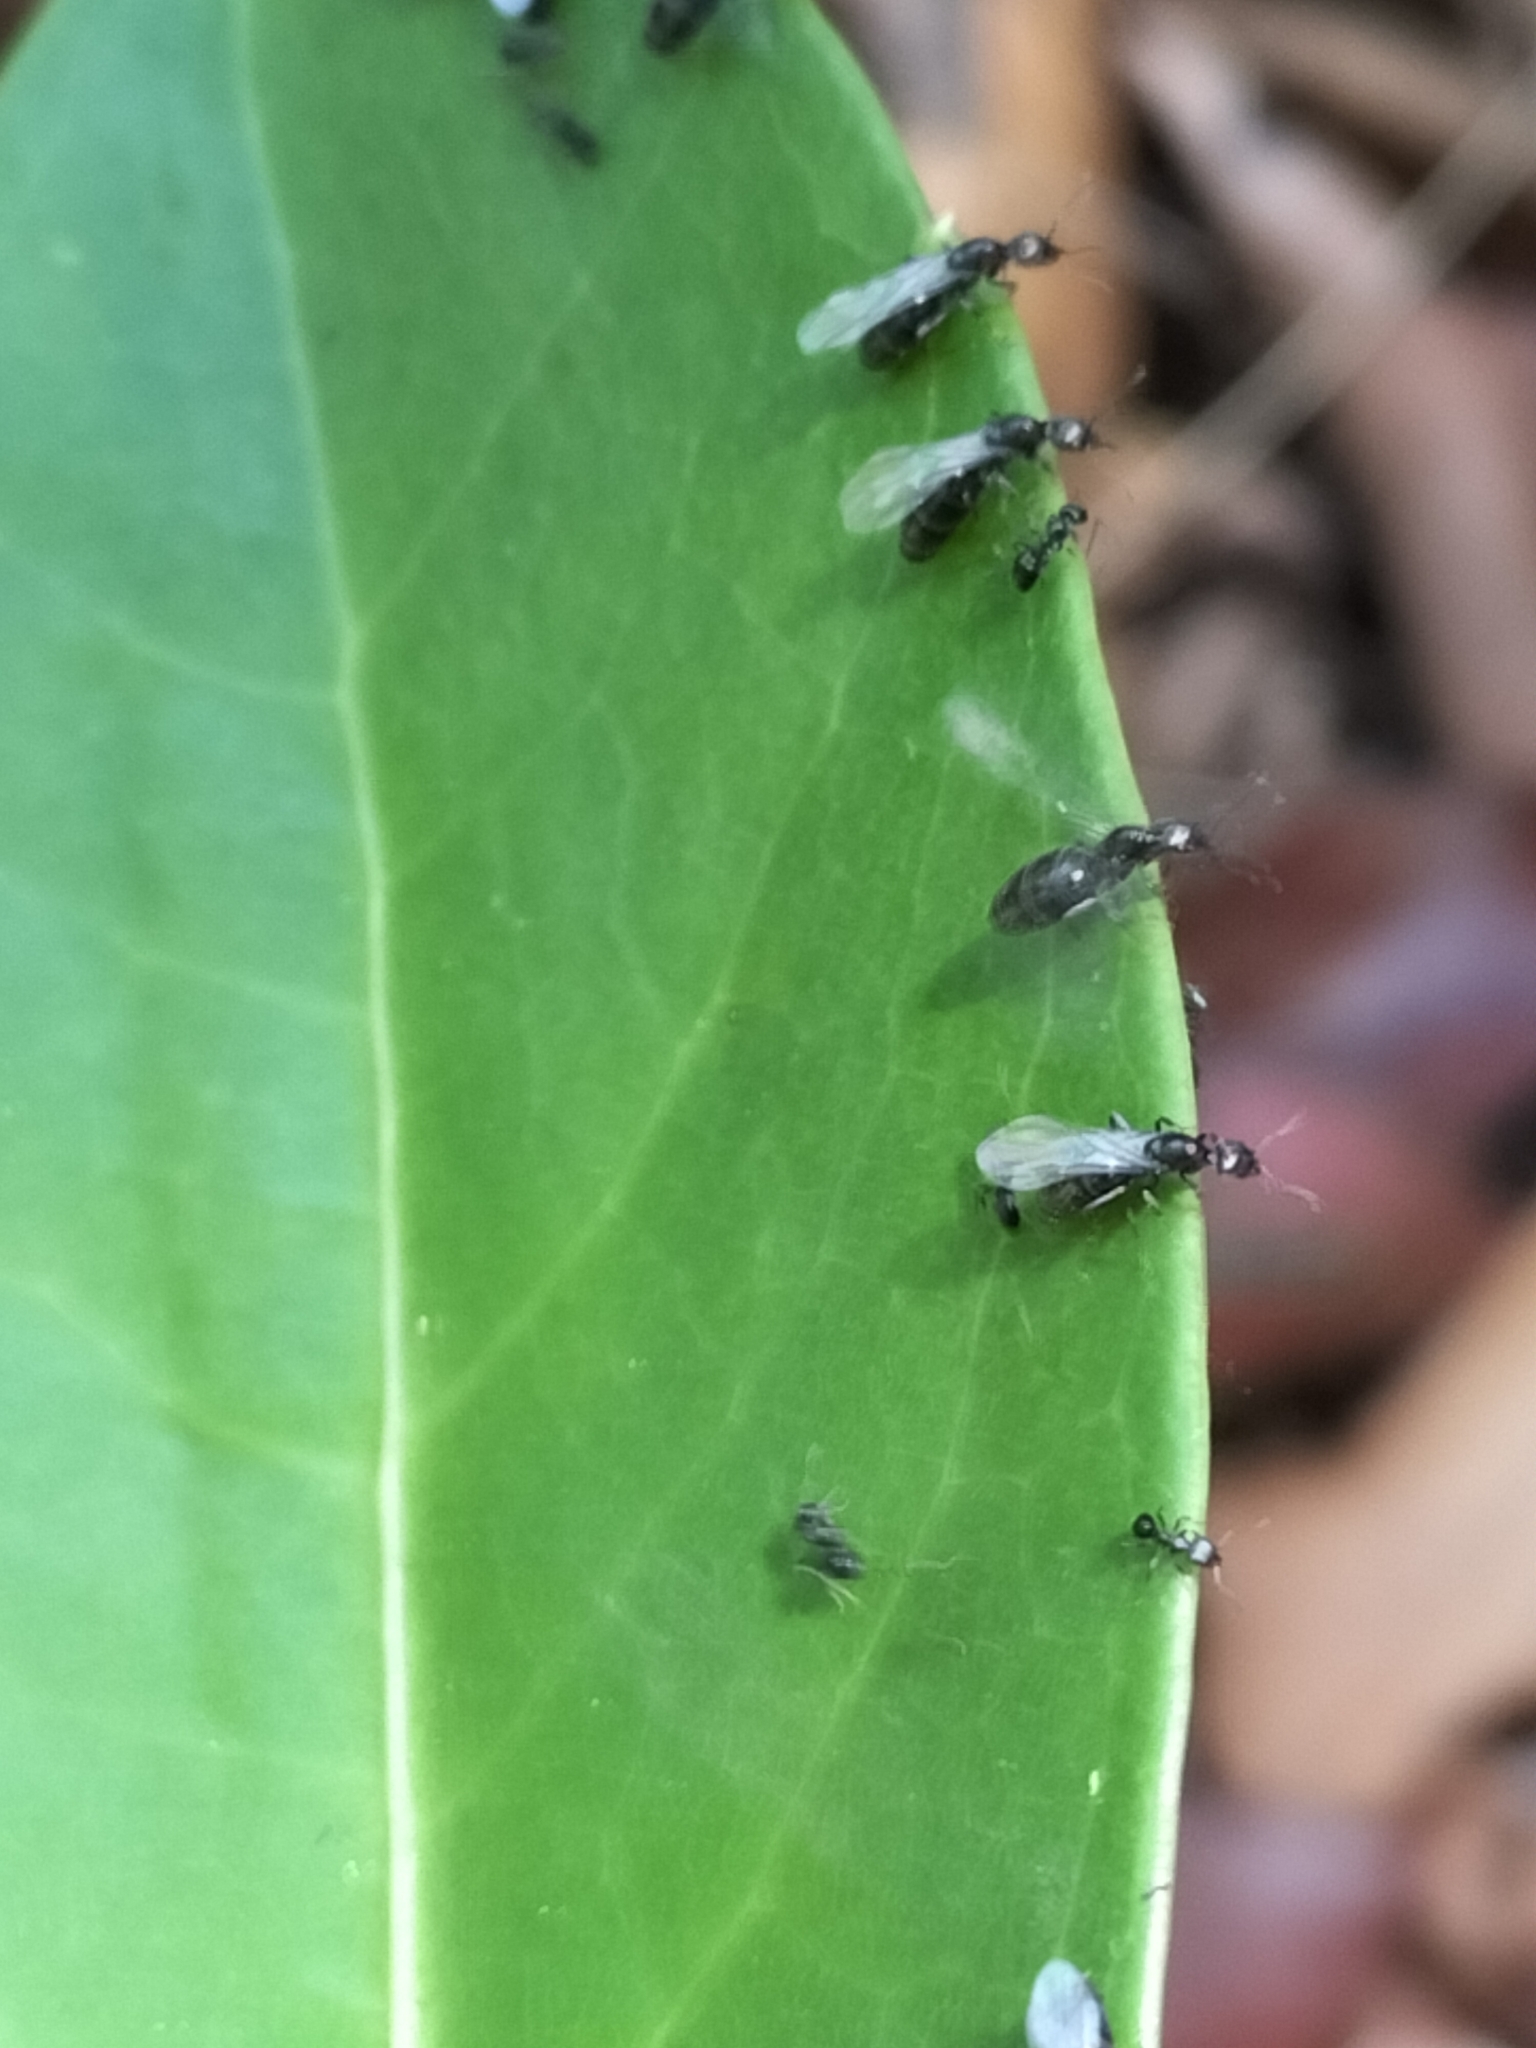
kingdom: Animalia
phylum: Arthropoda
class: Insecta
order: Hymenoptera
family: Formicidae
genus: Ochetellus
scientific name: Ochetellus glaber
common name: Ant
